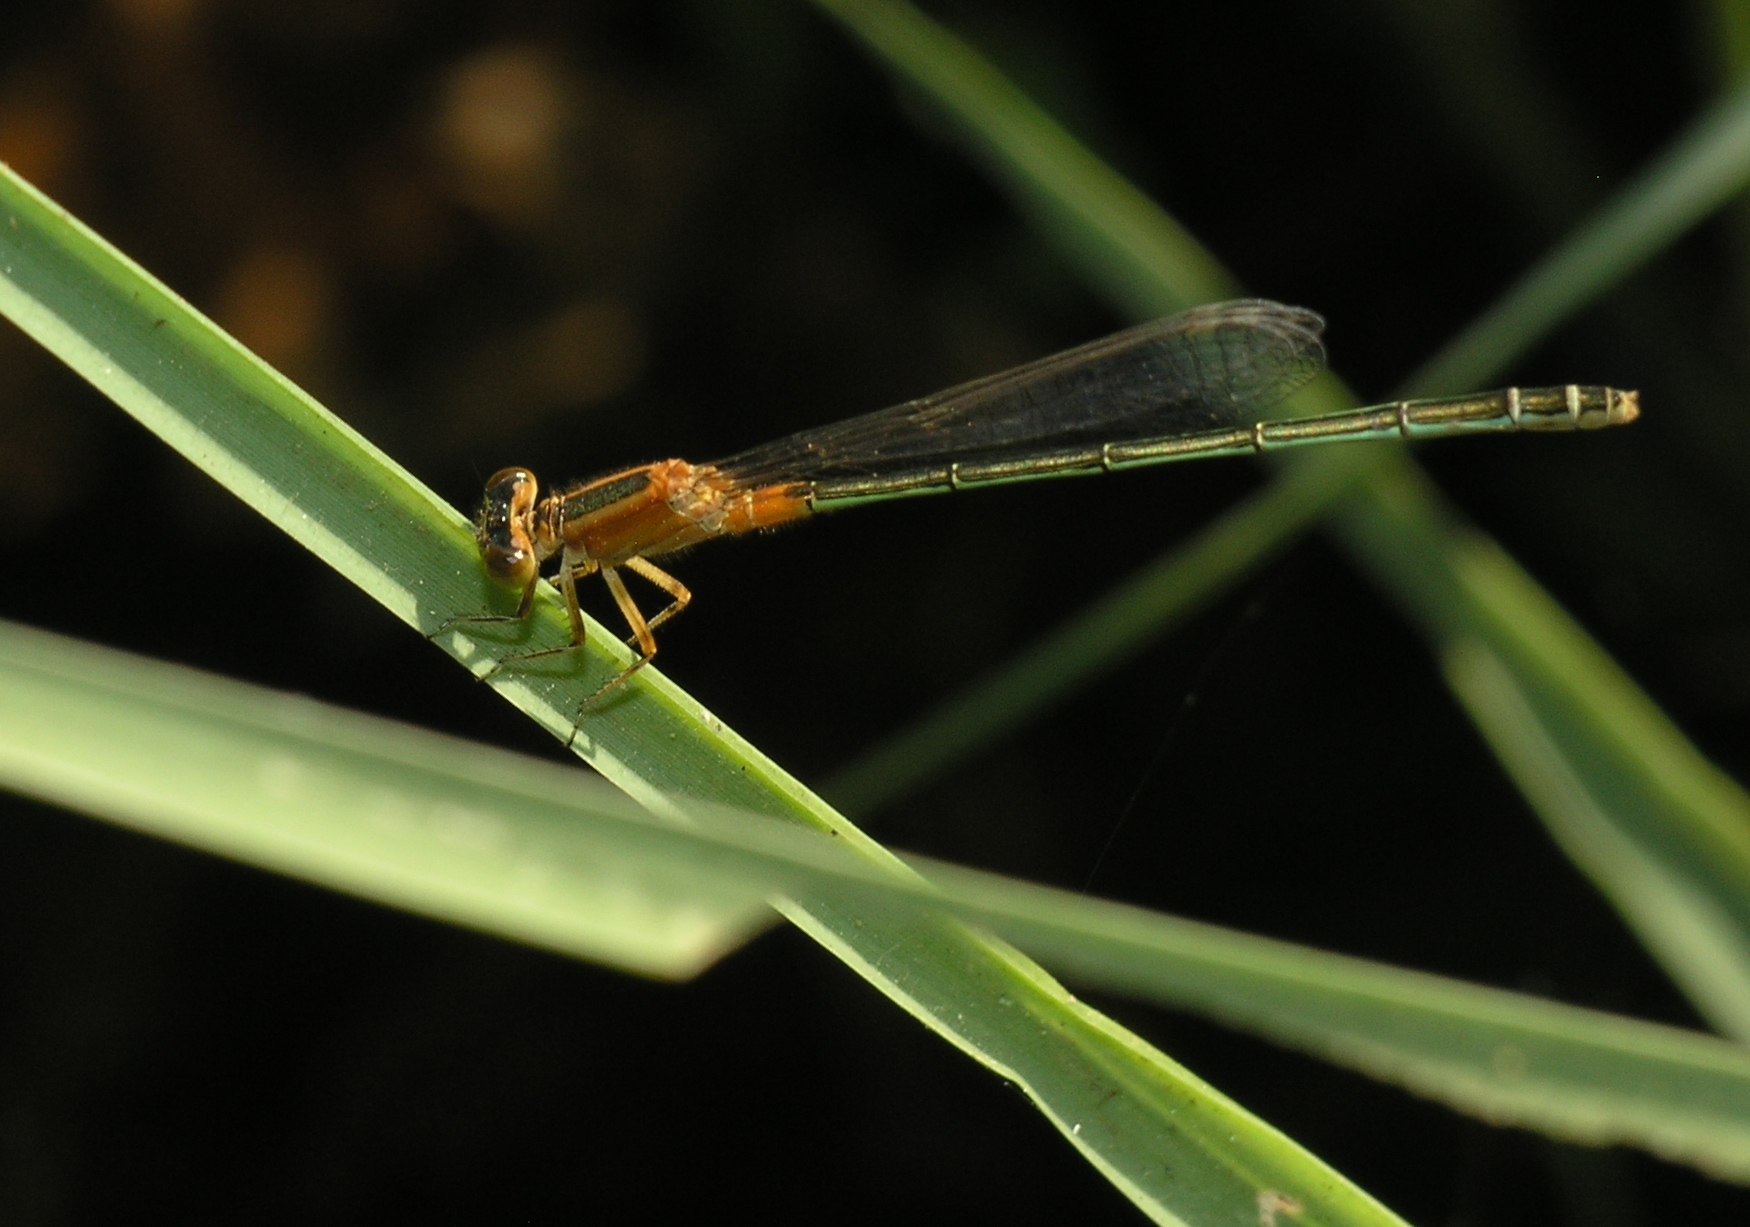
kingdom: Animalia
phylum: Arthropoda
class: Insecta
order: Odonata
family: Coenagrionidae
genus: Ischnura
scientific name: Ischnura senegalensis
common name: Tropical bluetail
